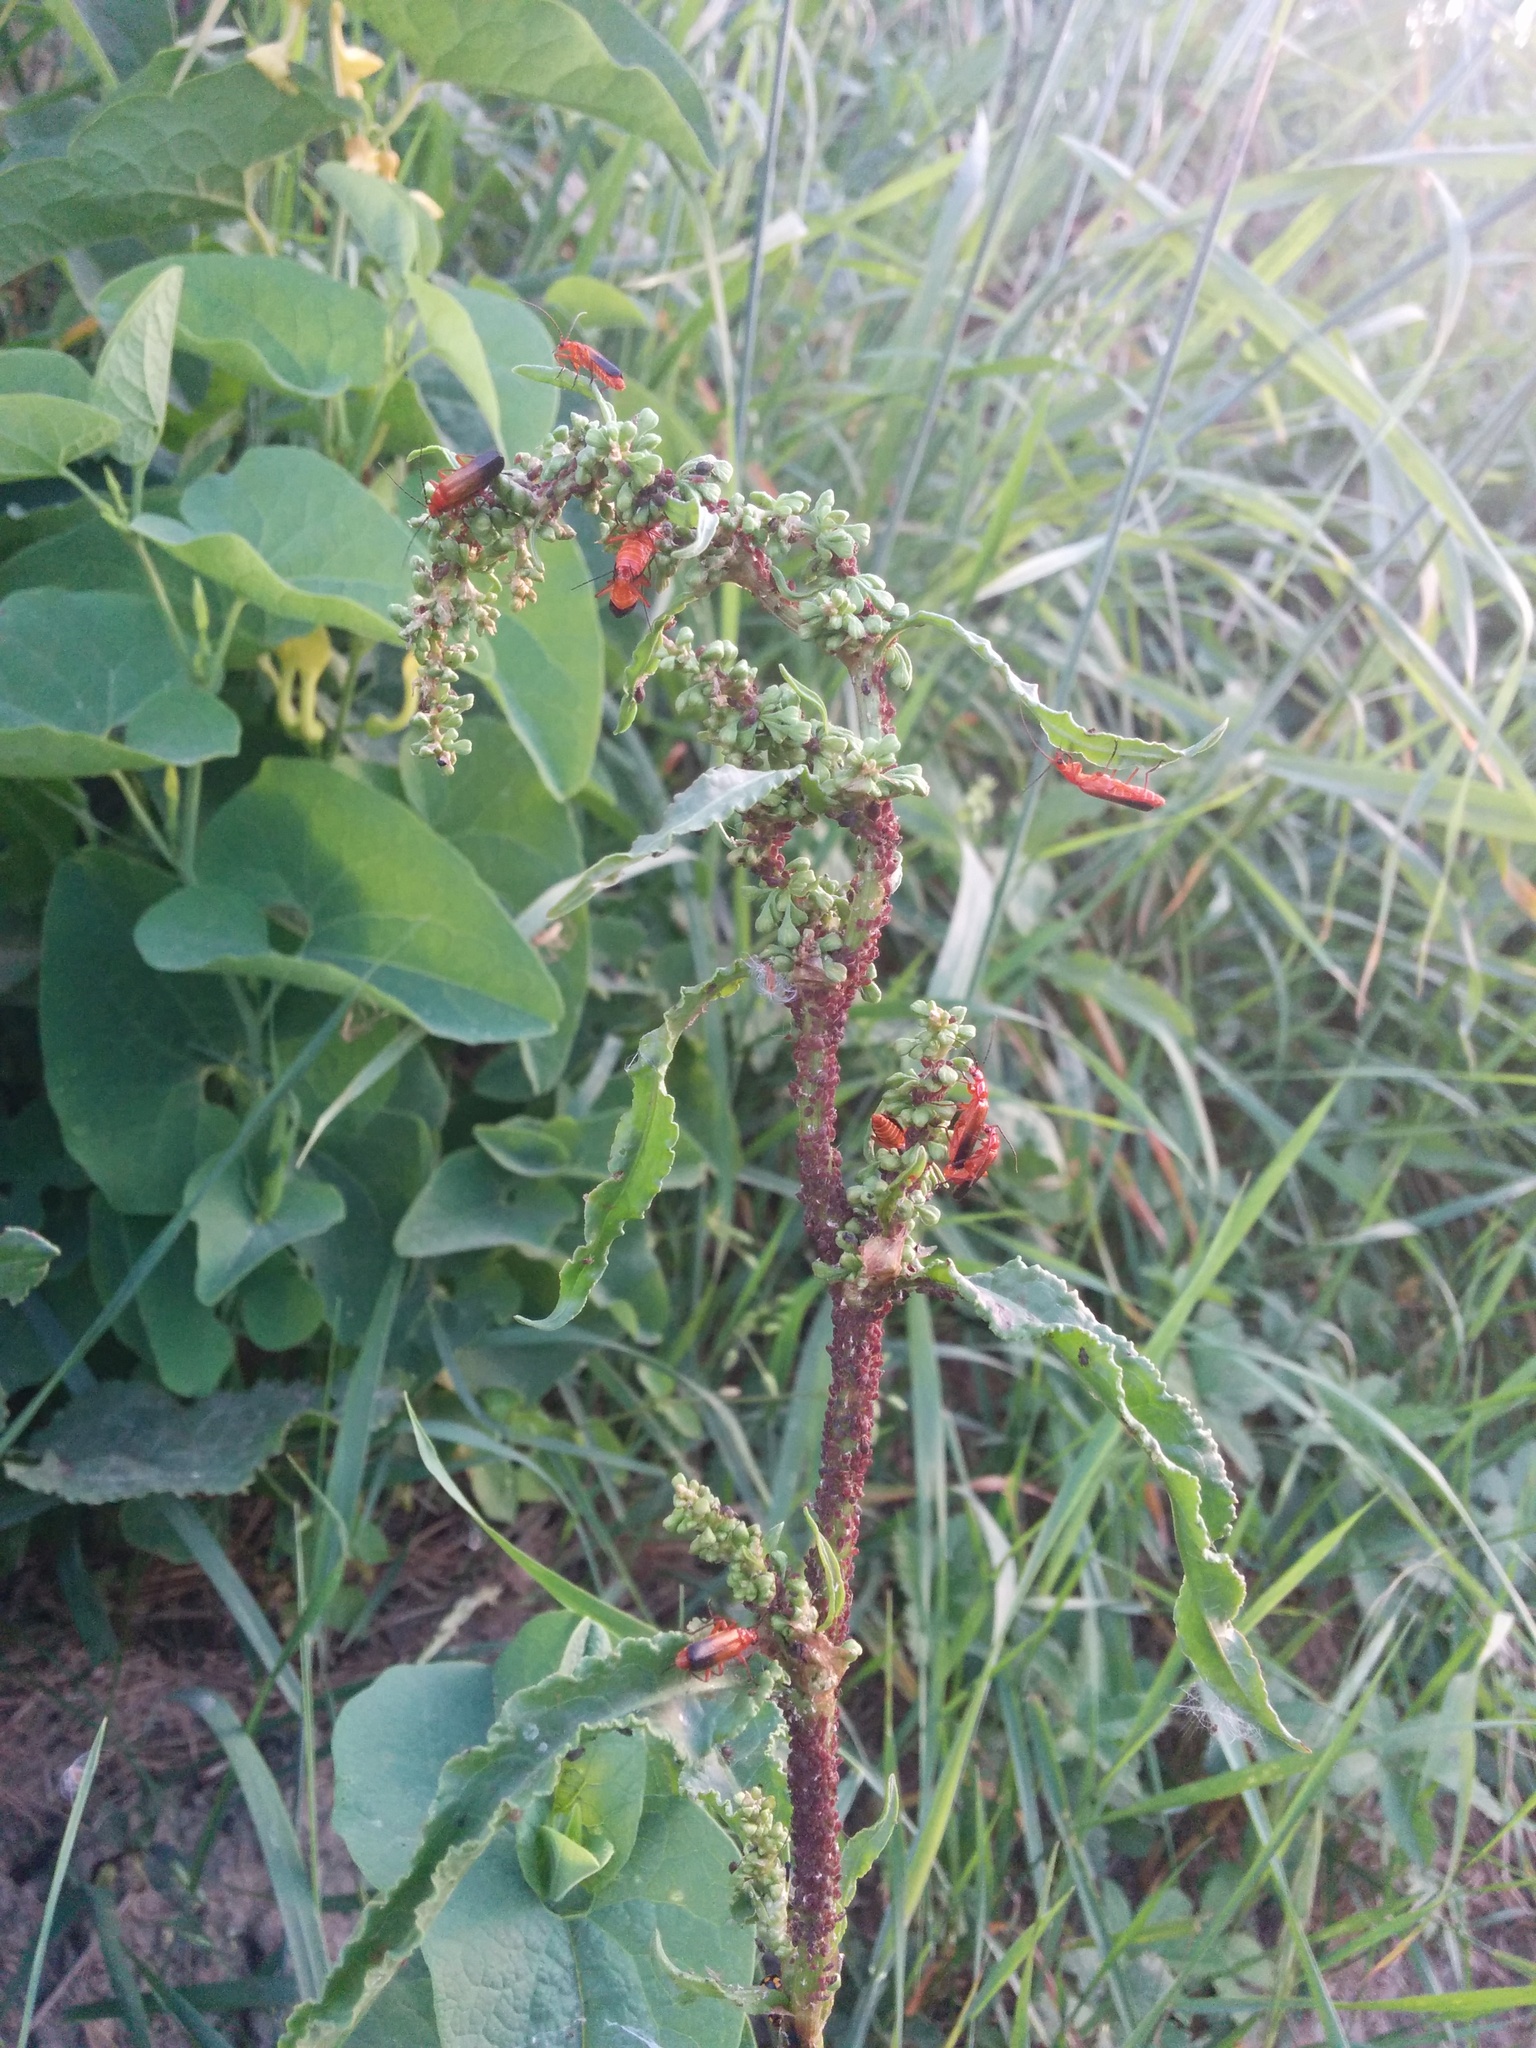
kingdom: Plantae
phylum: Tracheophyta
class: Magnoliopsida
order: Piperales
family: Aristolochiaceae
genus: Aristolochia
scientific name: Aristolochia clematitis
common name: Birthwort
